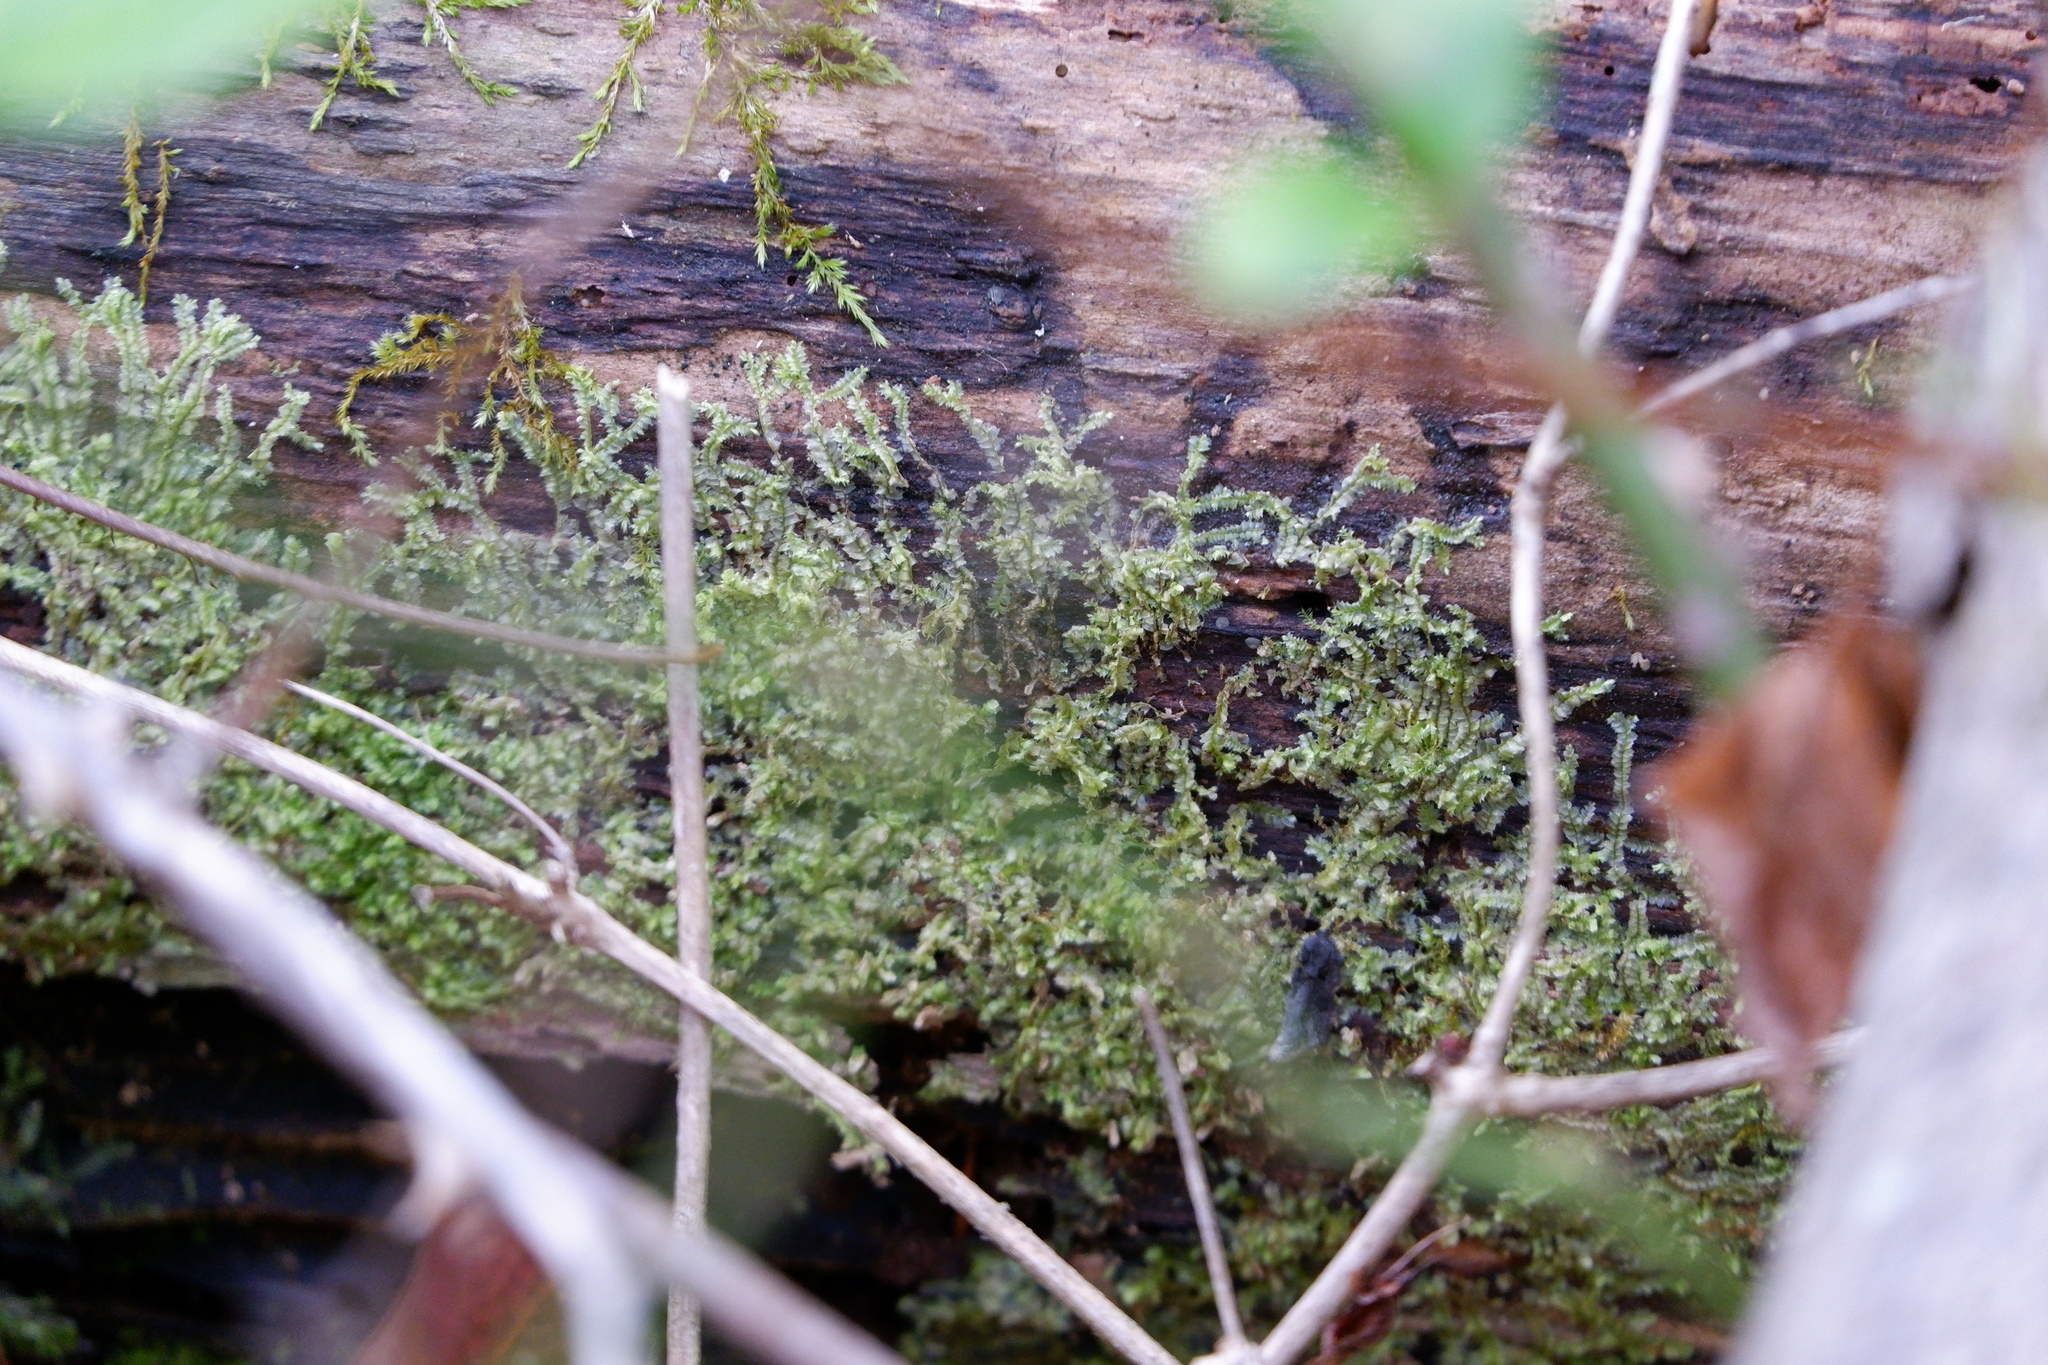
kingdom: Plantae
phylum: Marchantiophyta
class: Jungermanniopsida
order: Jungermanniales
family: Lophocoleaceae
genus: Lophocolea
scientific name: Lophocolea heterophylla
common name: Variable-leaved crestwort
